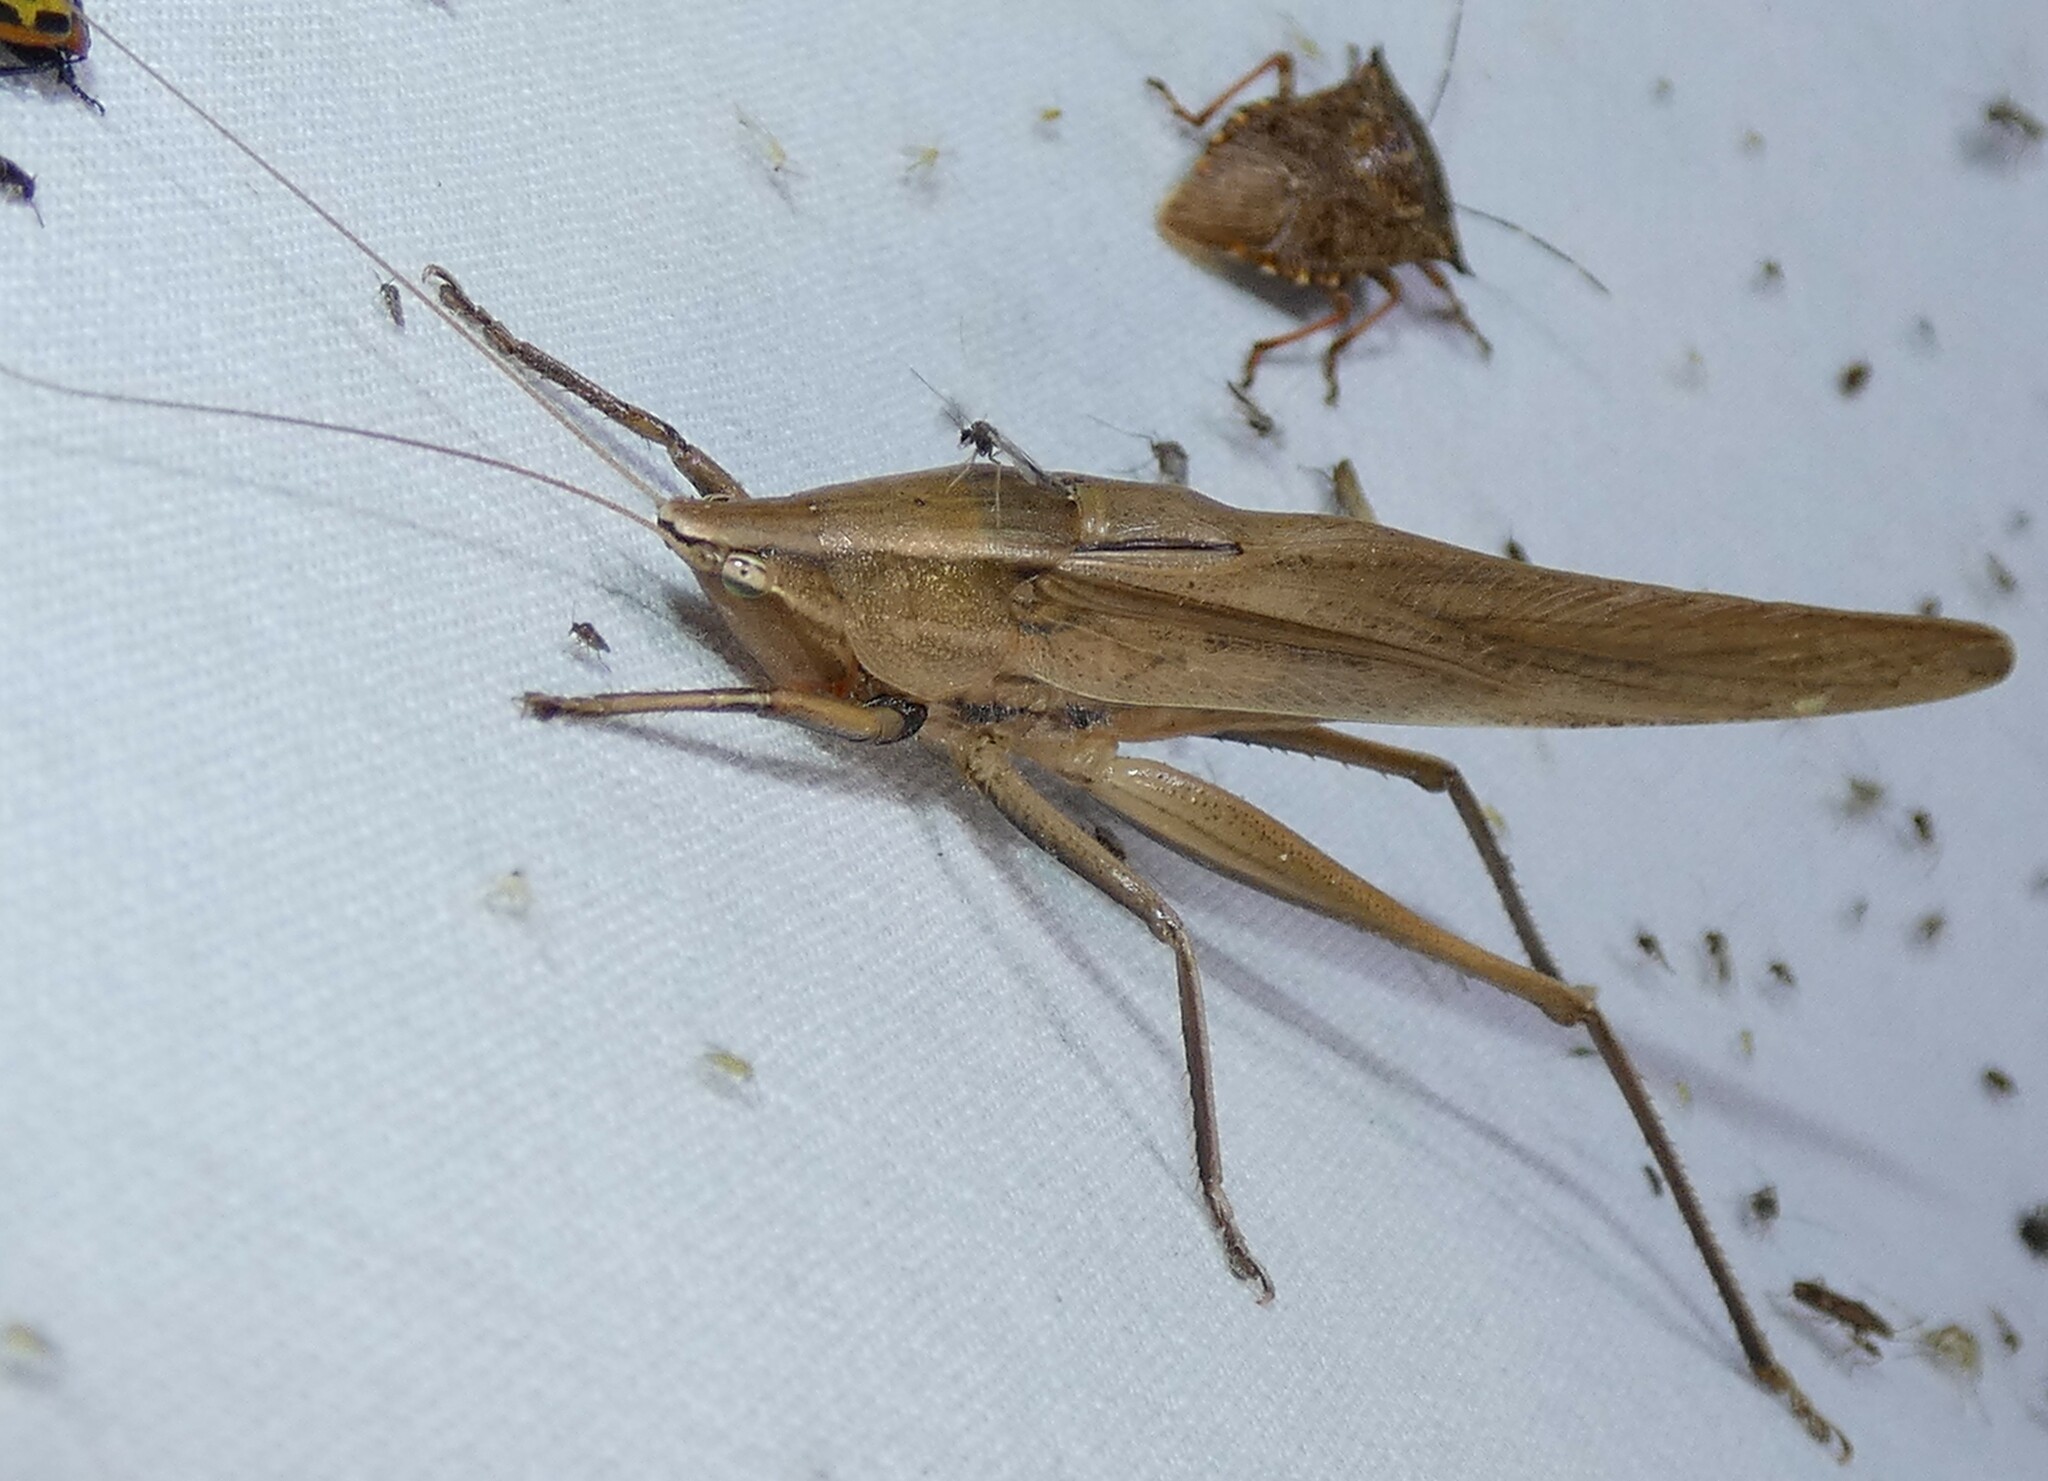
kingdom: Animalia
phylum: Arthropoda
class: Insecta
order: Orthoptera
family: Tettigoniidae
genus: Neoconocephalus
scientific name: Neoconocephalus triops
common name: Broad-tipped conehead
